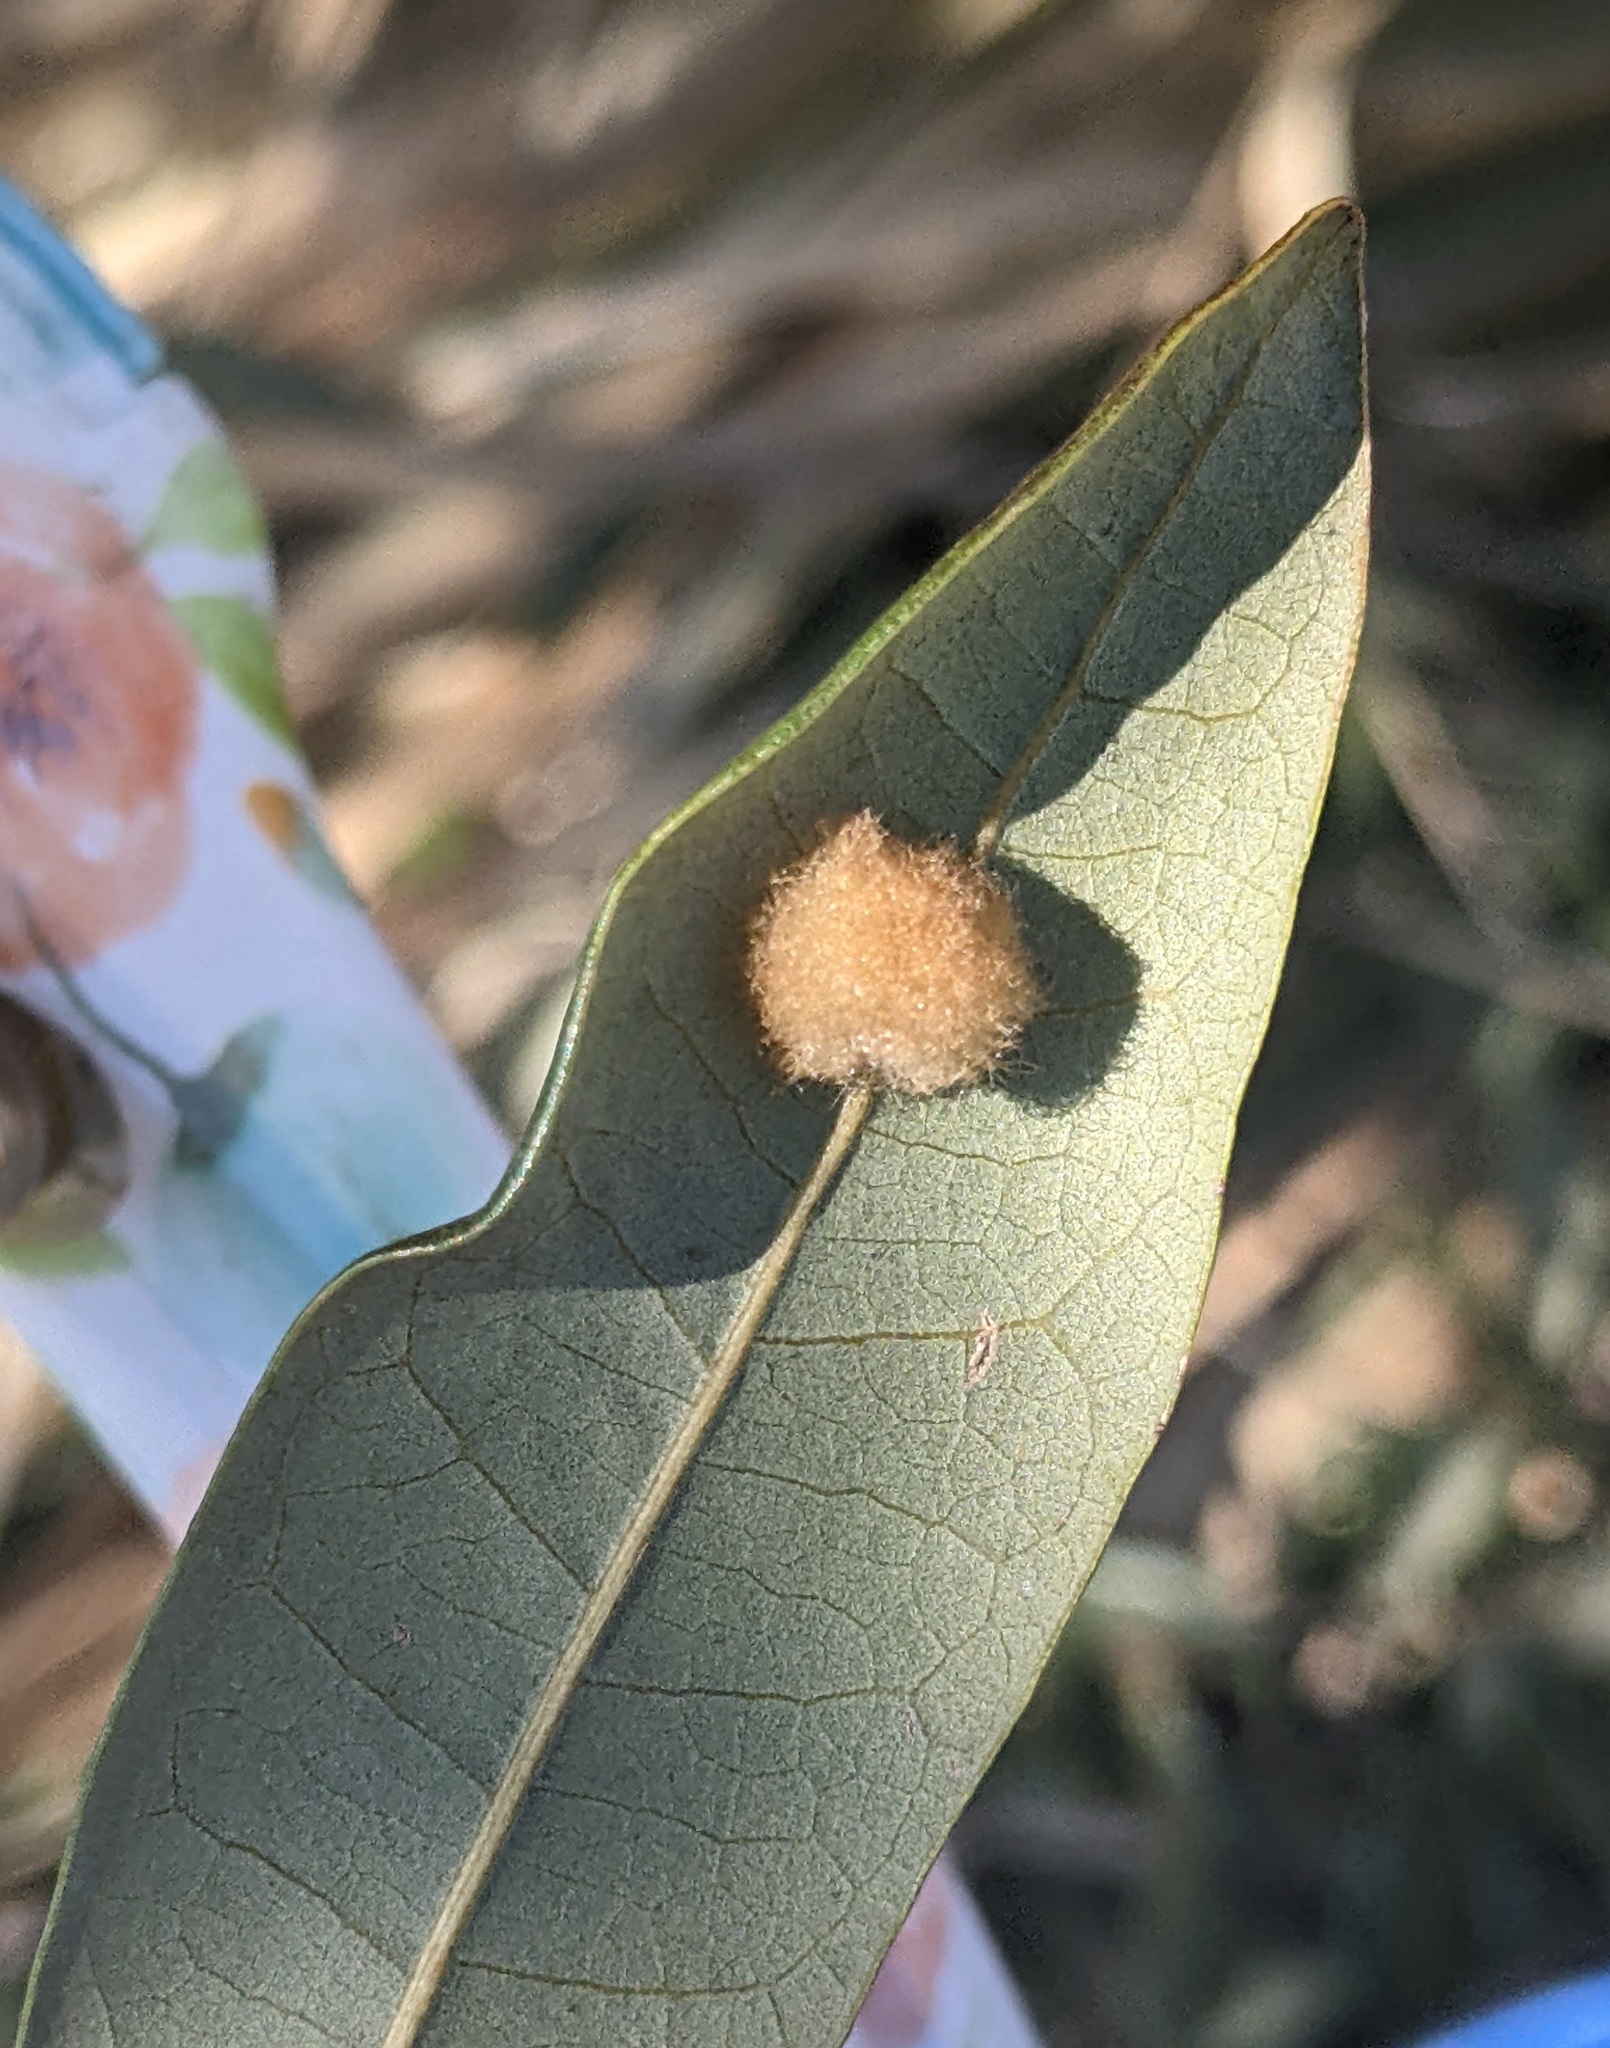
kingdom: Animalia
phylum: Arthropoda
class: Insecta
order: Hymenoptera
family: Cynipidae
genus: Andricus
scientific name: Andricus Druon quercuslanigerum
